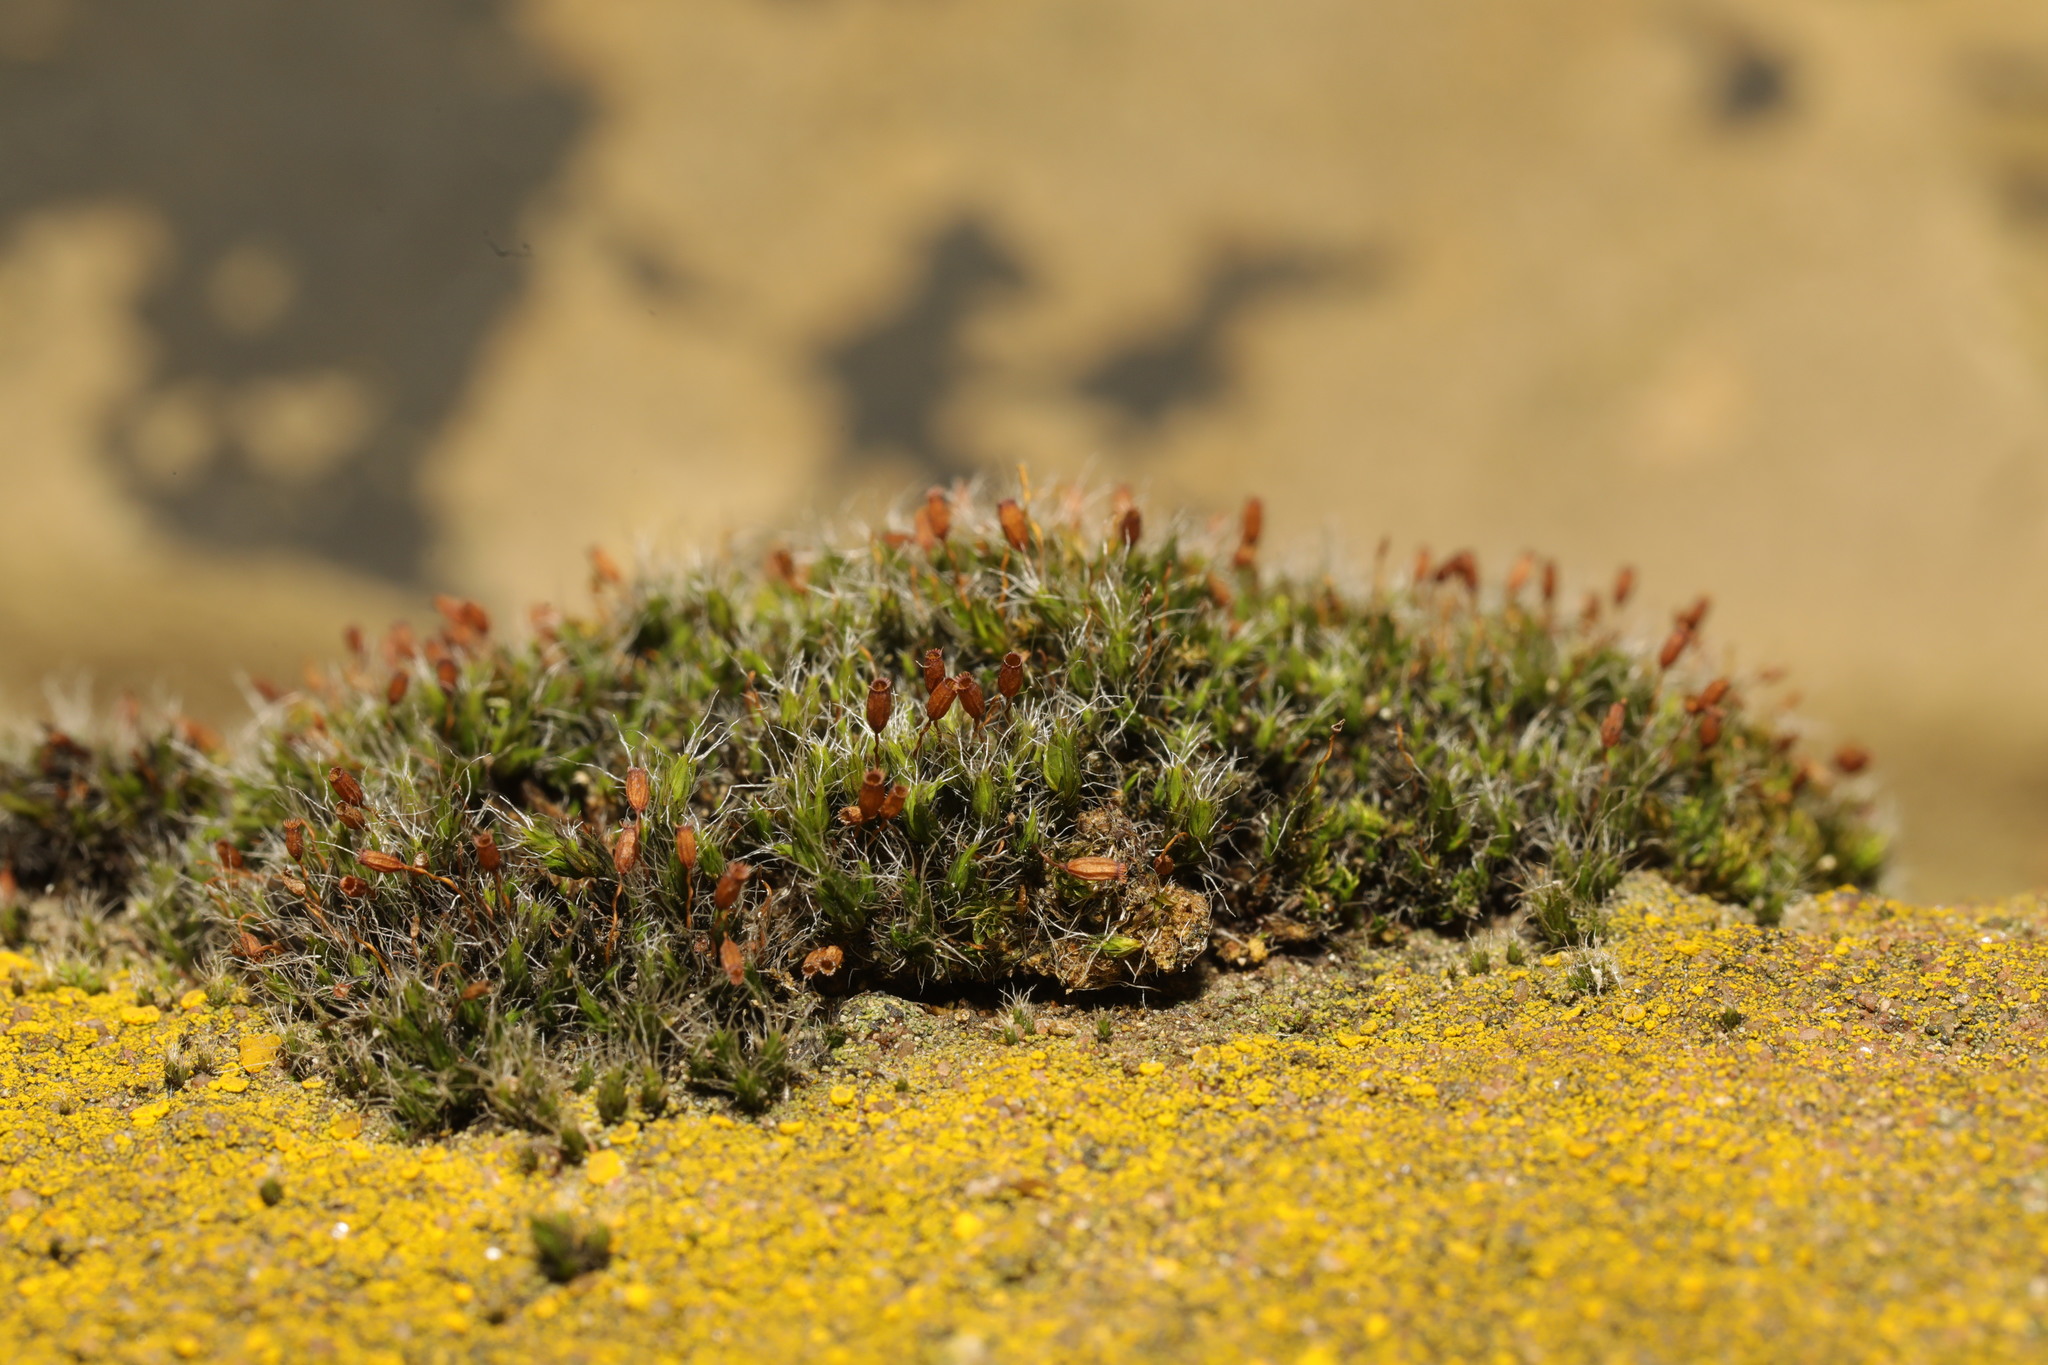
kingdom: Plantae
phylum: Bryophyta
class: Bryopsida
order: Grimmiales
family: Grimmiaceae
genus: Grimmia
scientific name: Grimmia pulvinata
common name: Grey-cushioned grimmia
